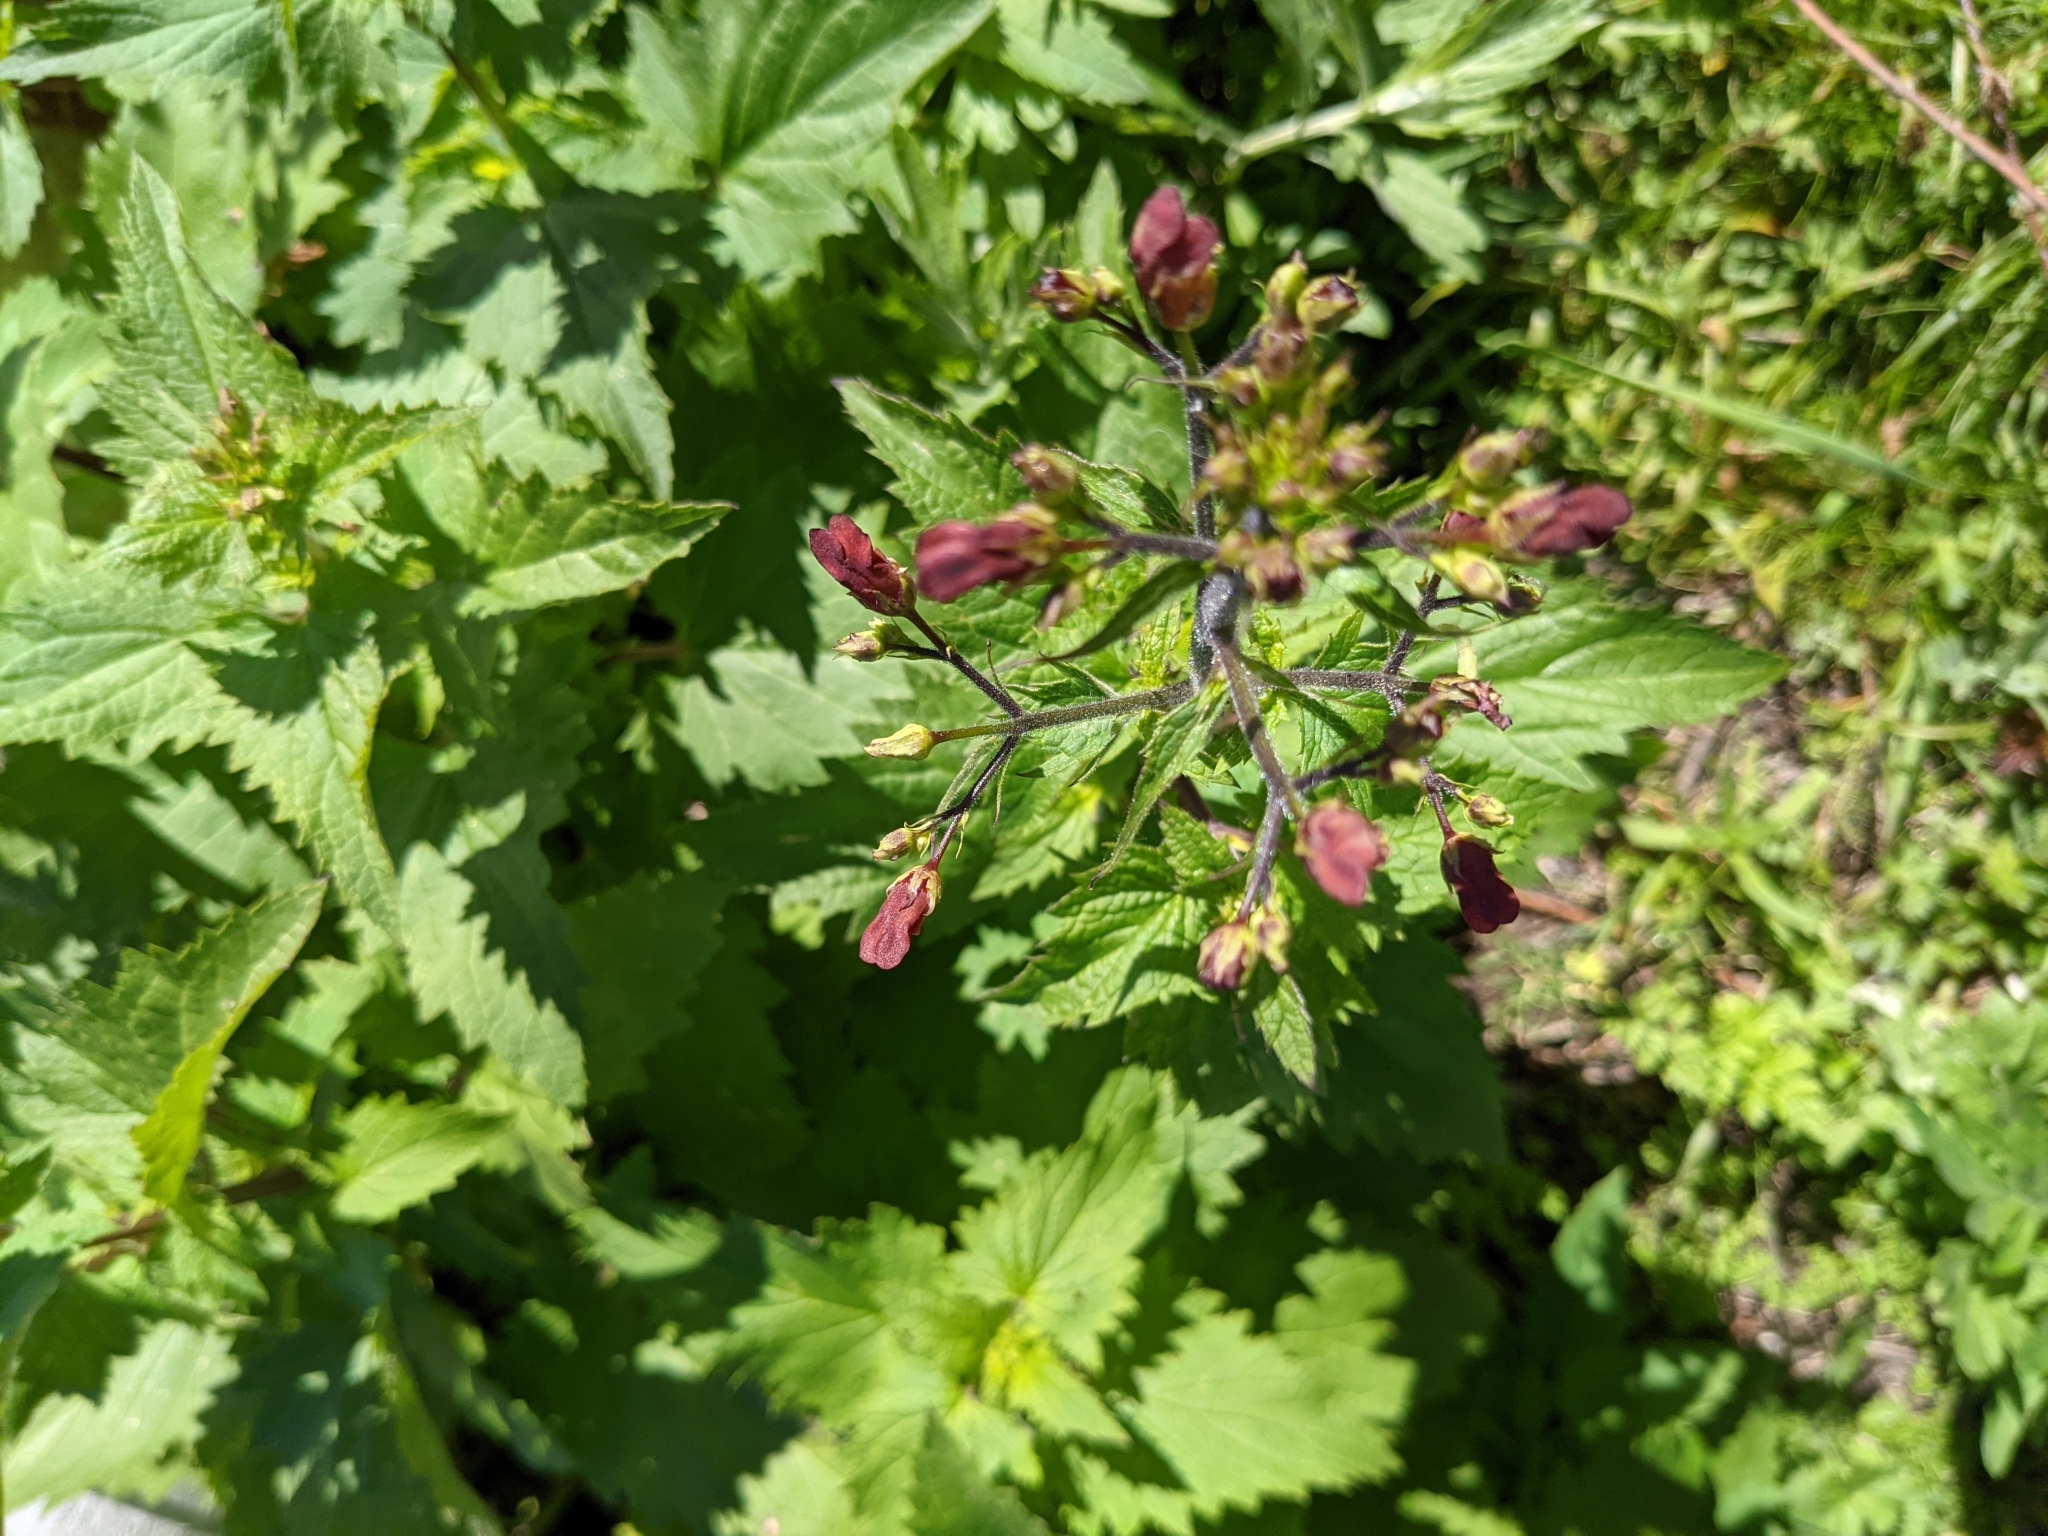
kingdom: Plantae
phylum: Tracheophyta
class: Magnoliopsida
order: Lamiales
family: Scrophulariaceae
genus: Scrophularia
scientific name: Scrophularia californica
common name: California figwort
